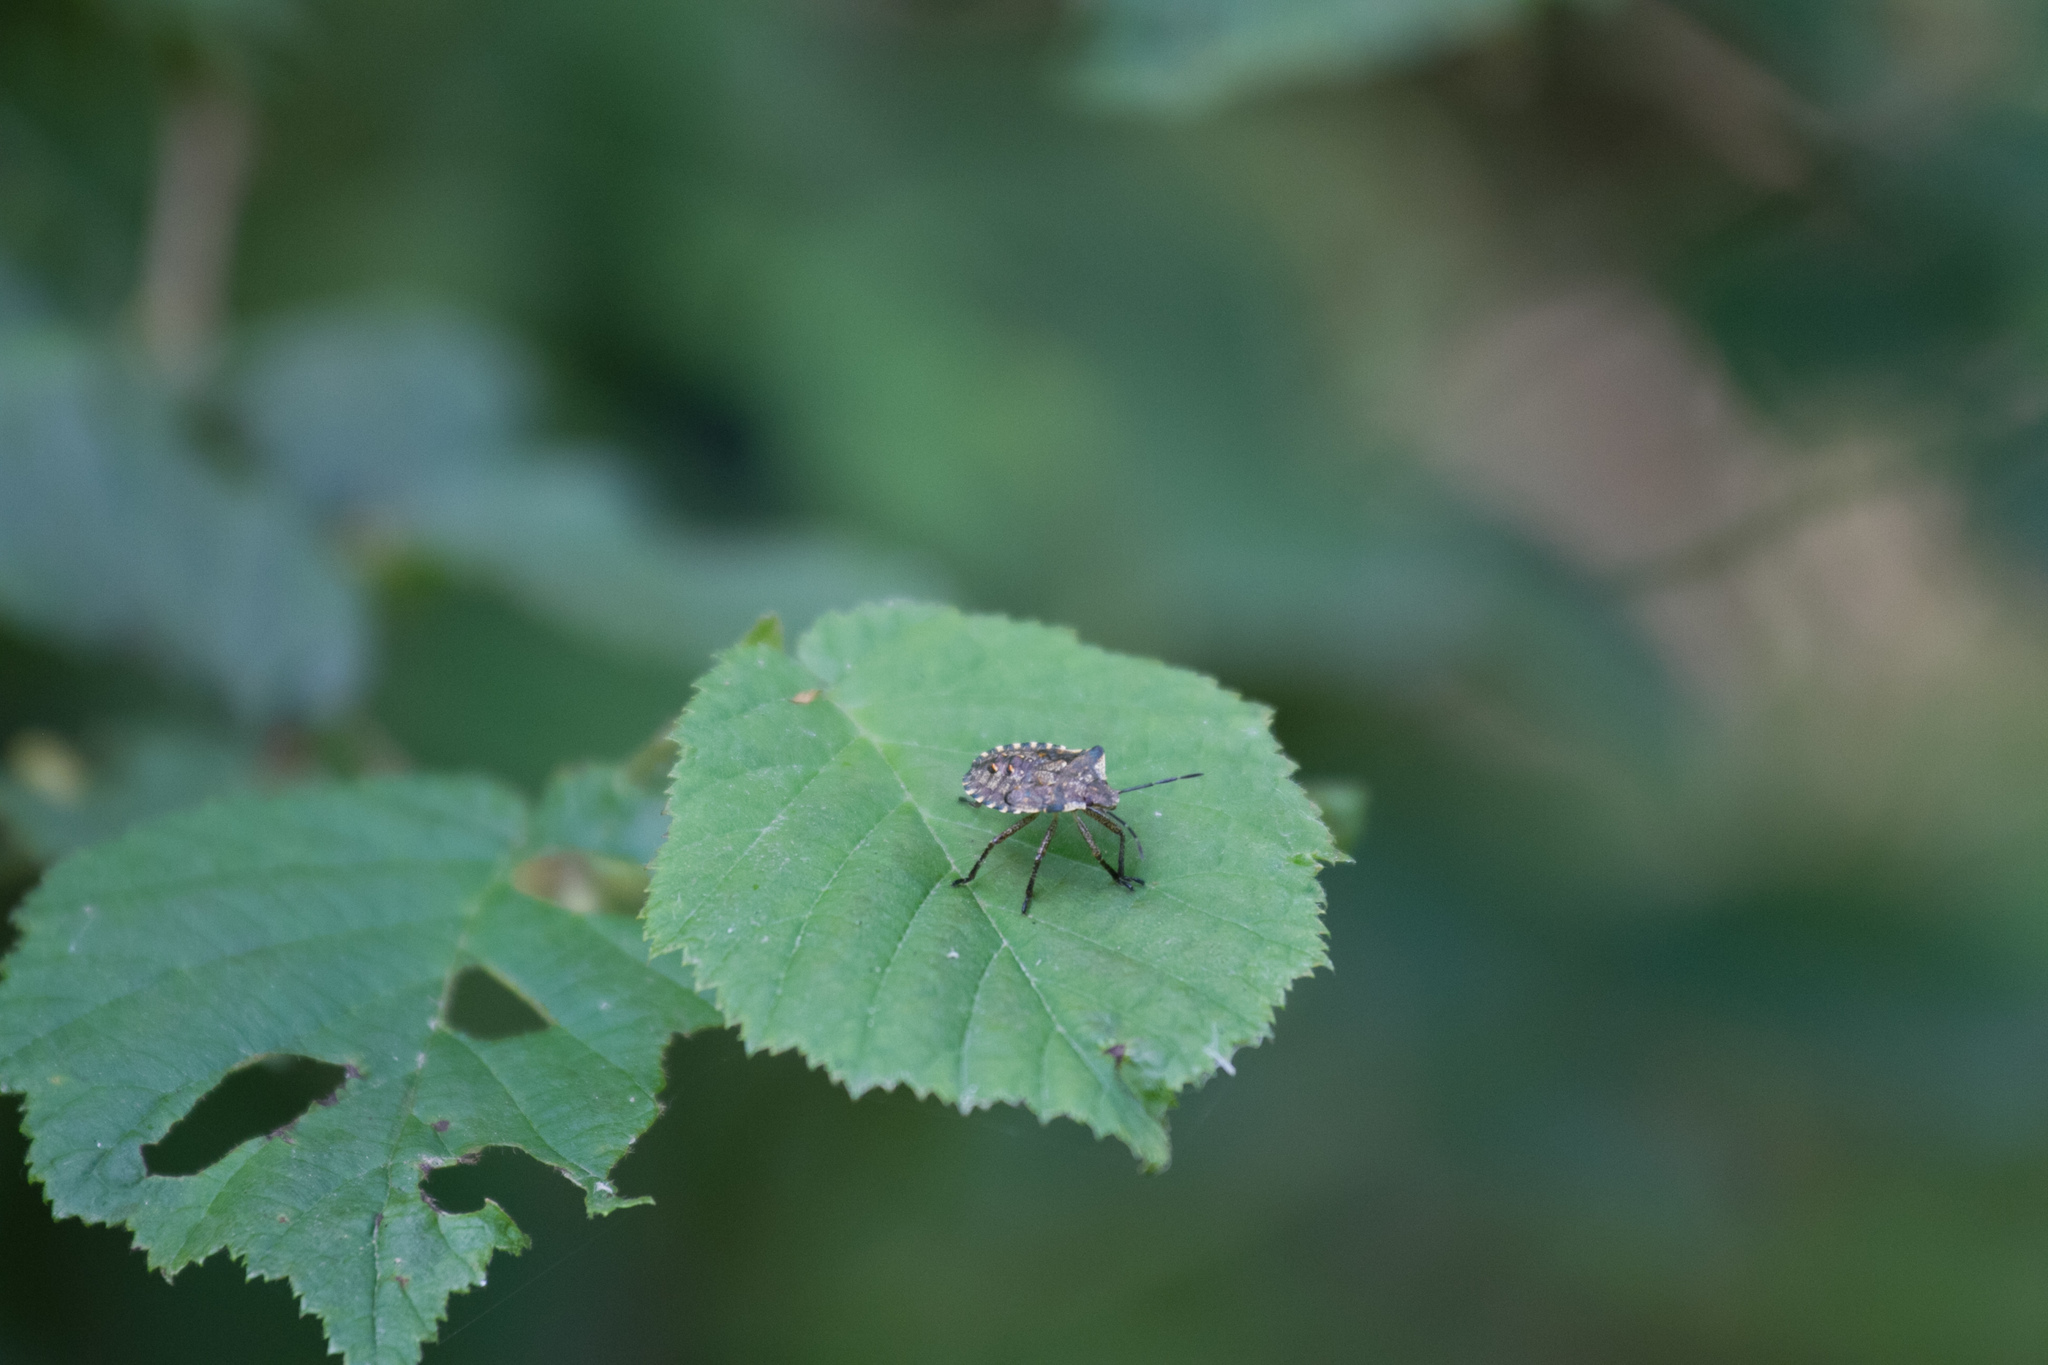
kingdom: Animalia
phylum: Arthropoda
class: Insecta
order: Hemiptera
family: Pentatomidae
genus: Pentatoma
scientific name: Pentatoma rufipes
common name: Forest bug
